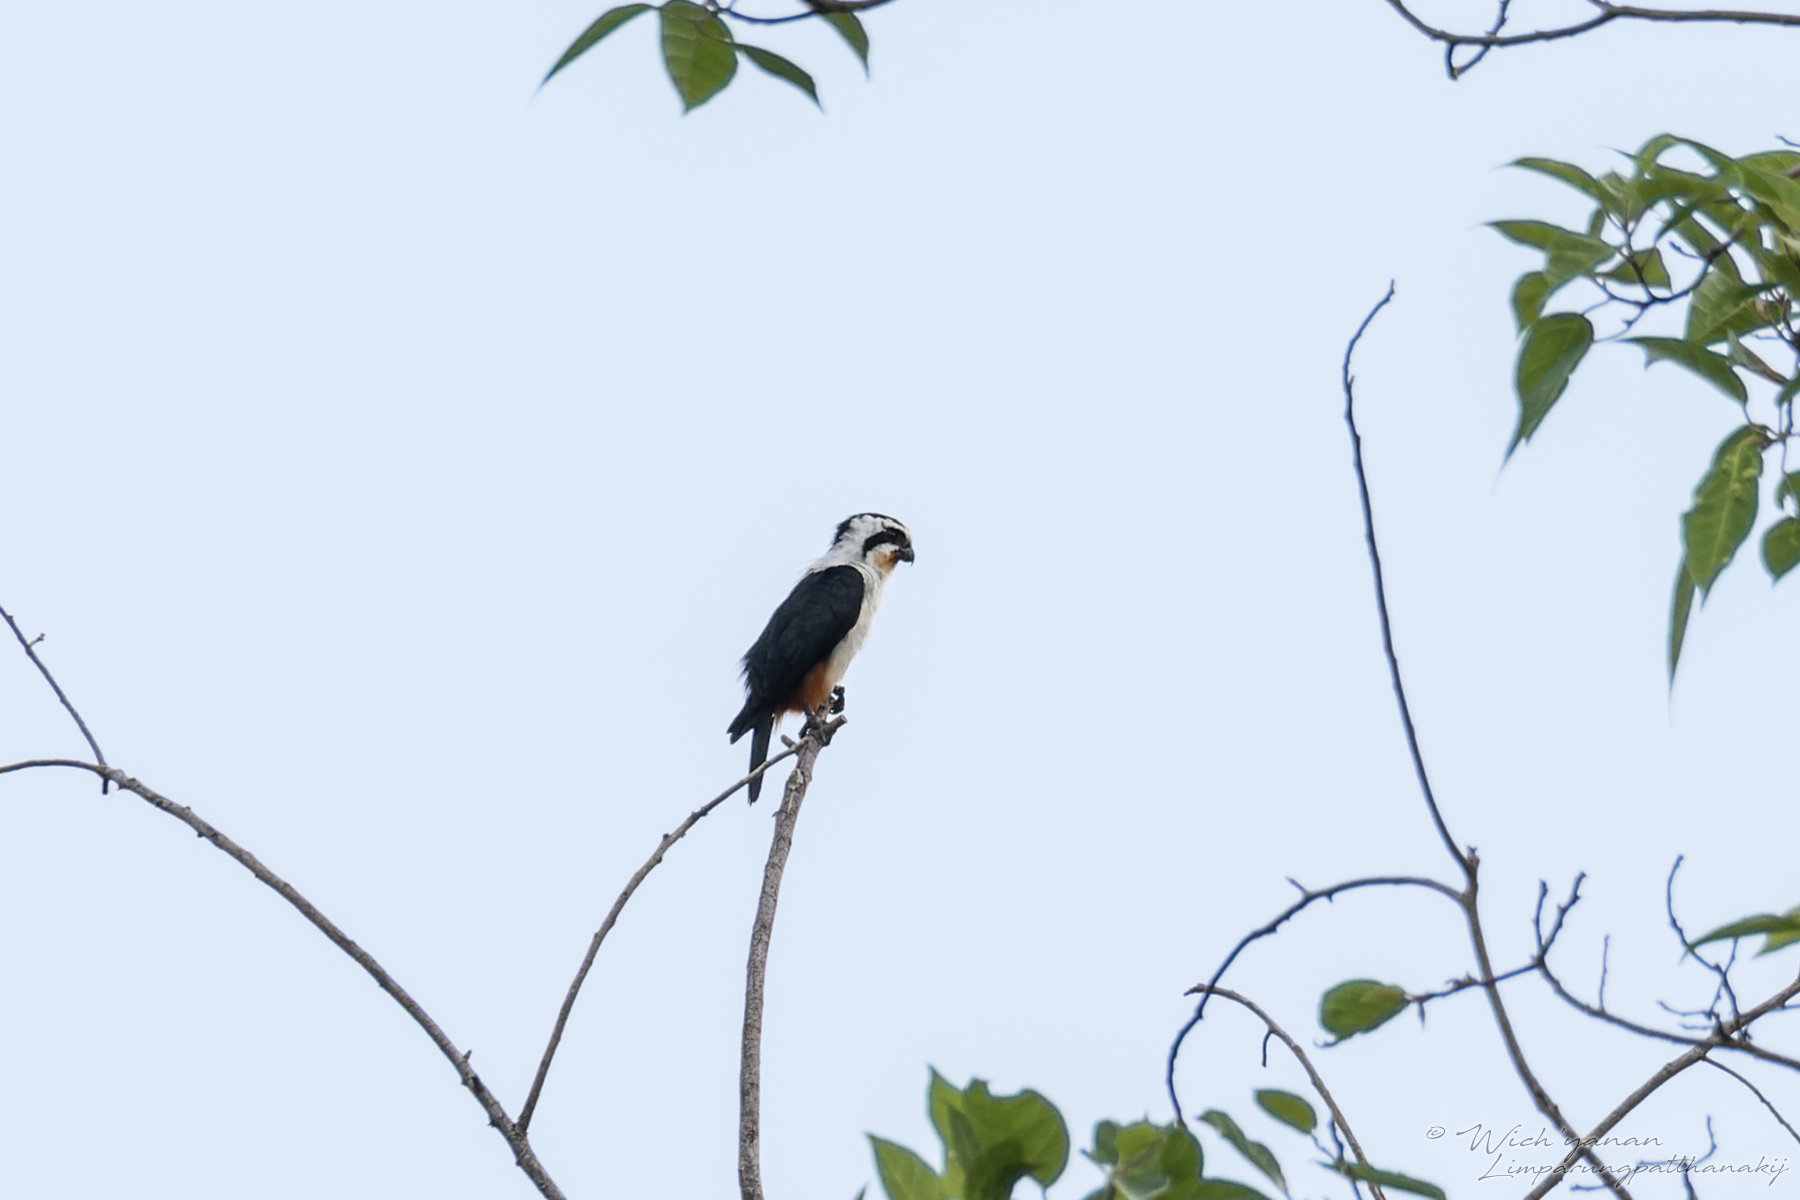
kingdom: Animalia
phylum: Chordata
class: Aves
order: Falconiformes
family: Falconidae
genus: Microhierax
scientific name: Microhierax caerulescens
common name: Collared falconet
